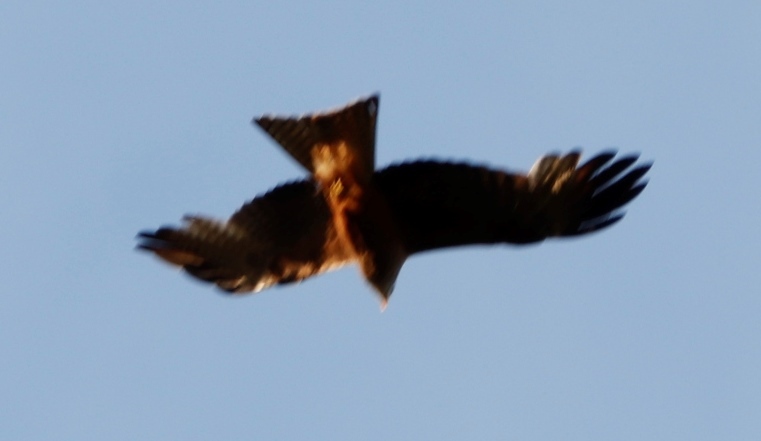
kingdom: Animalia
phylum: Chordata
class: Aves
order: Accipitriformes
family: Accipitridae
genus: Milvus
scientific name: Milvus migrans
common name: Black kite
